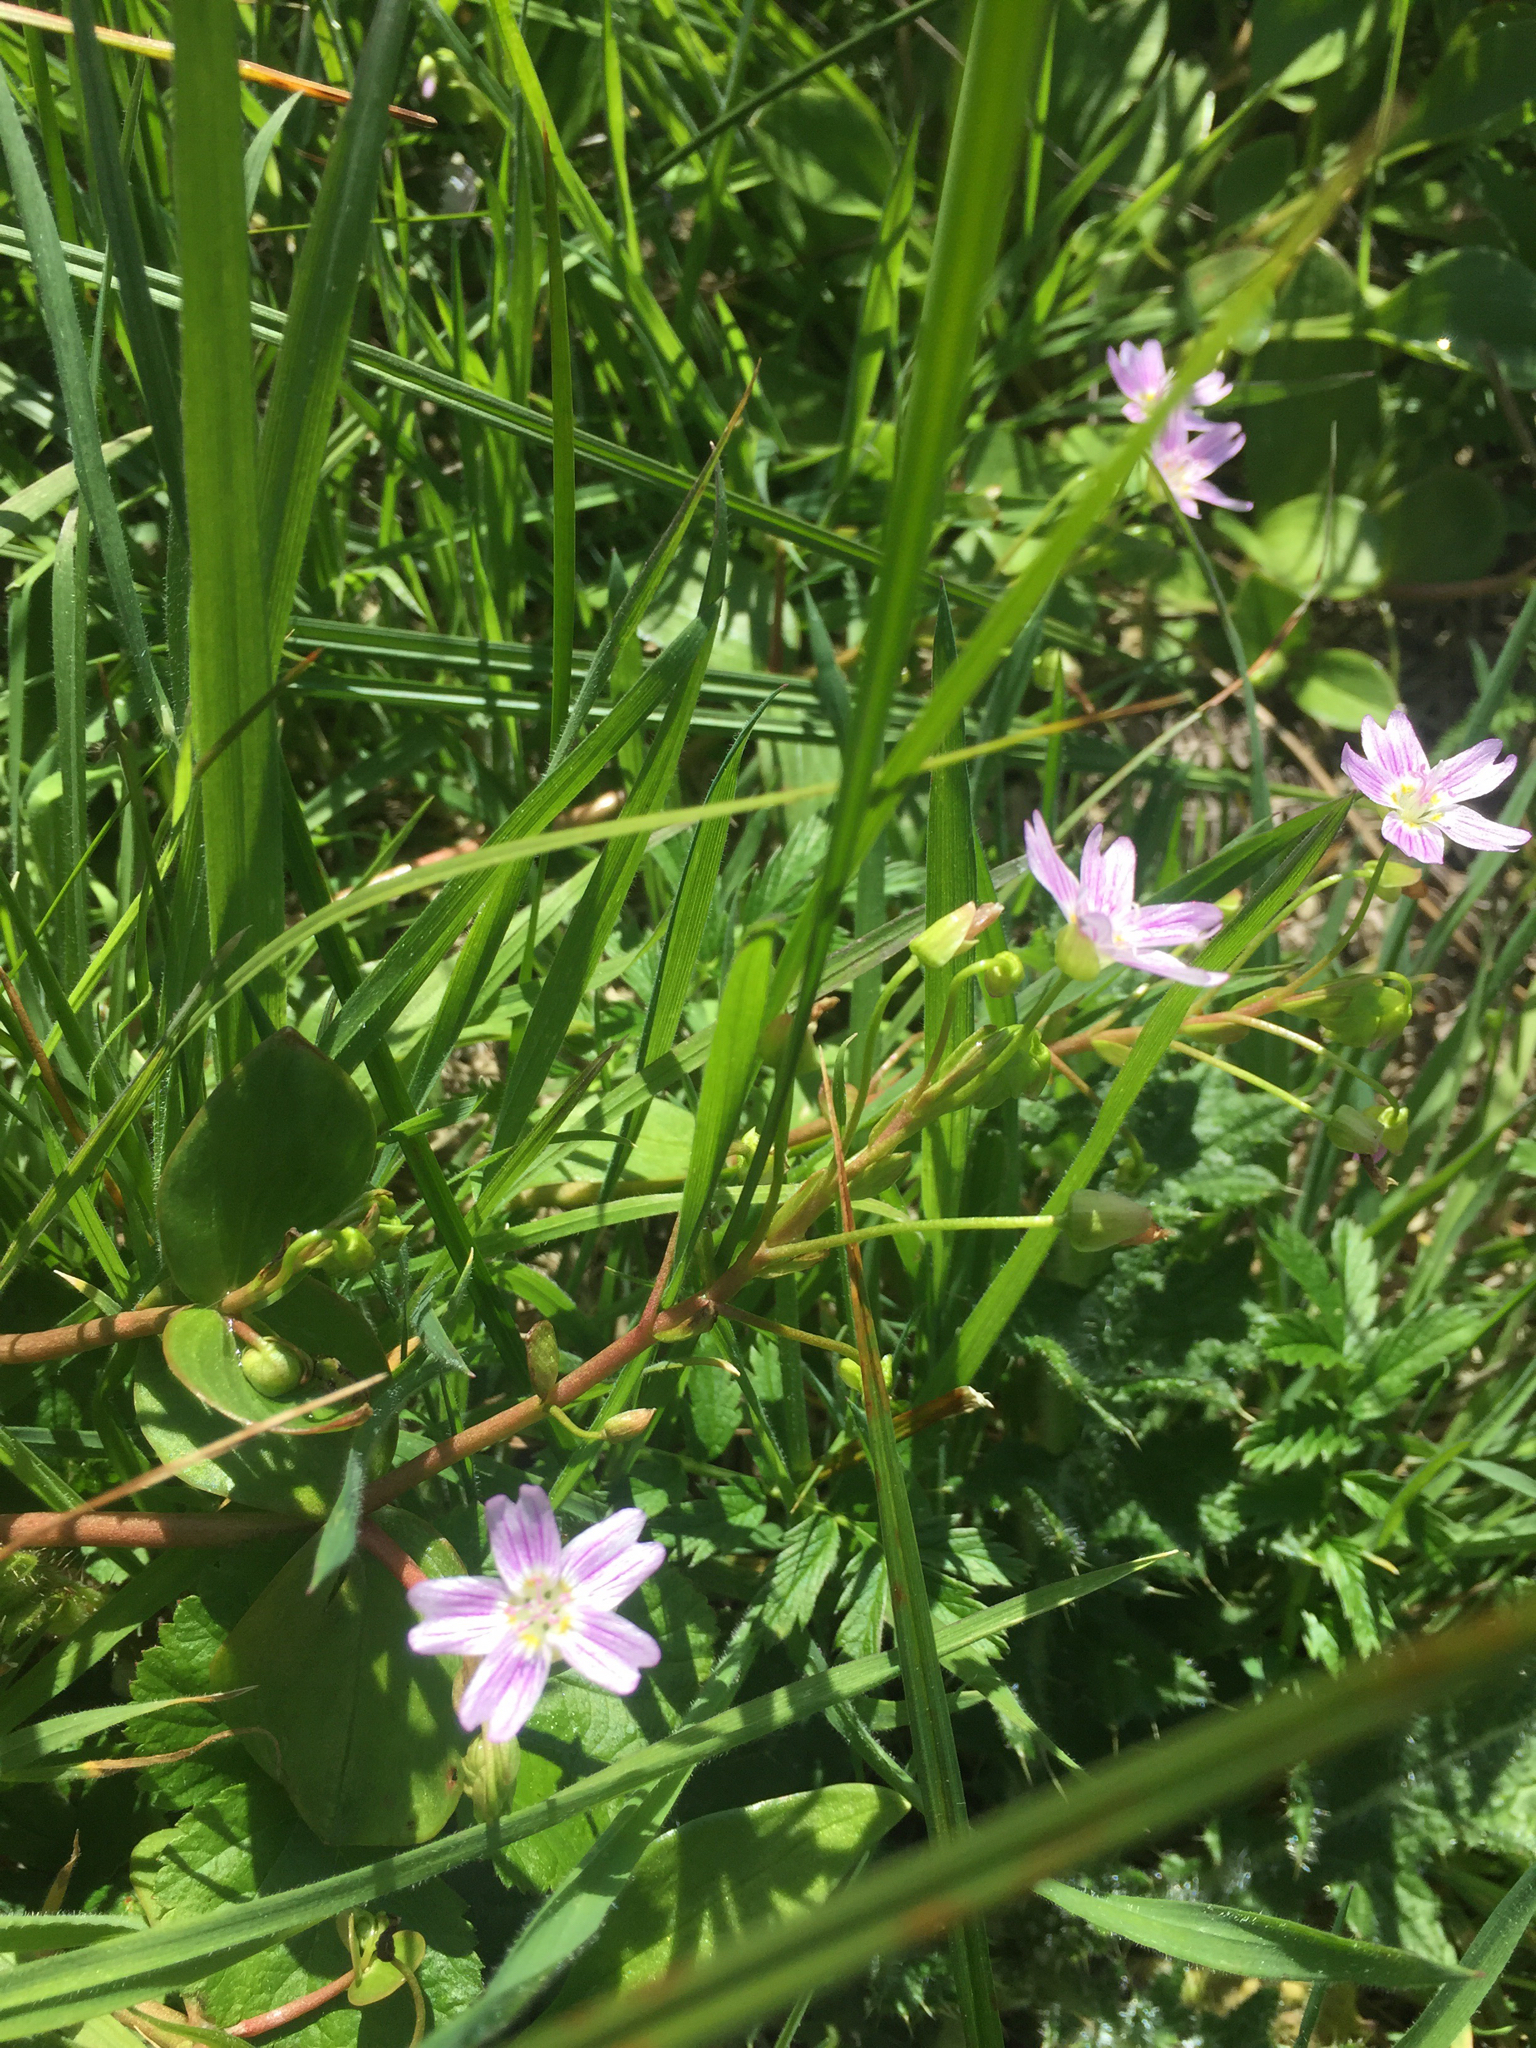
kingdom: Plantae
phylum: Tracheophyta
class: Magnoliopsida
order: Caryophyllales
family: Montiaceae
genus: Claytonia
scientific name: Claytonia sibirica
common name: Pink purslane
